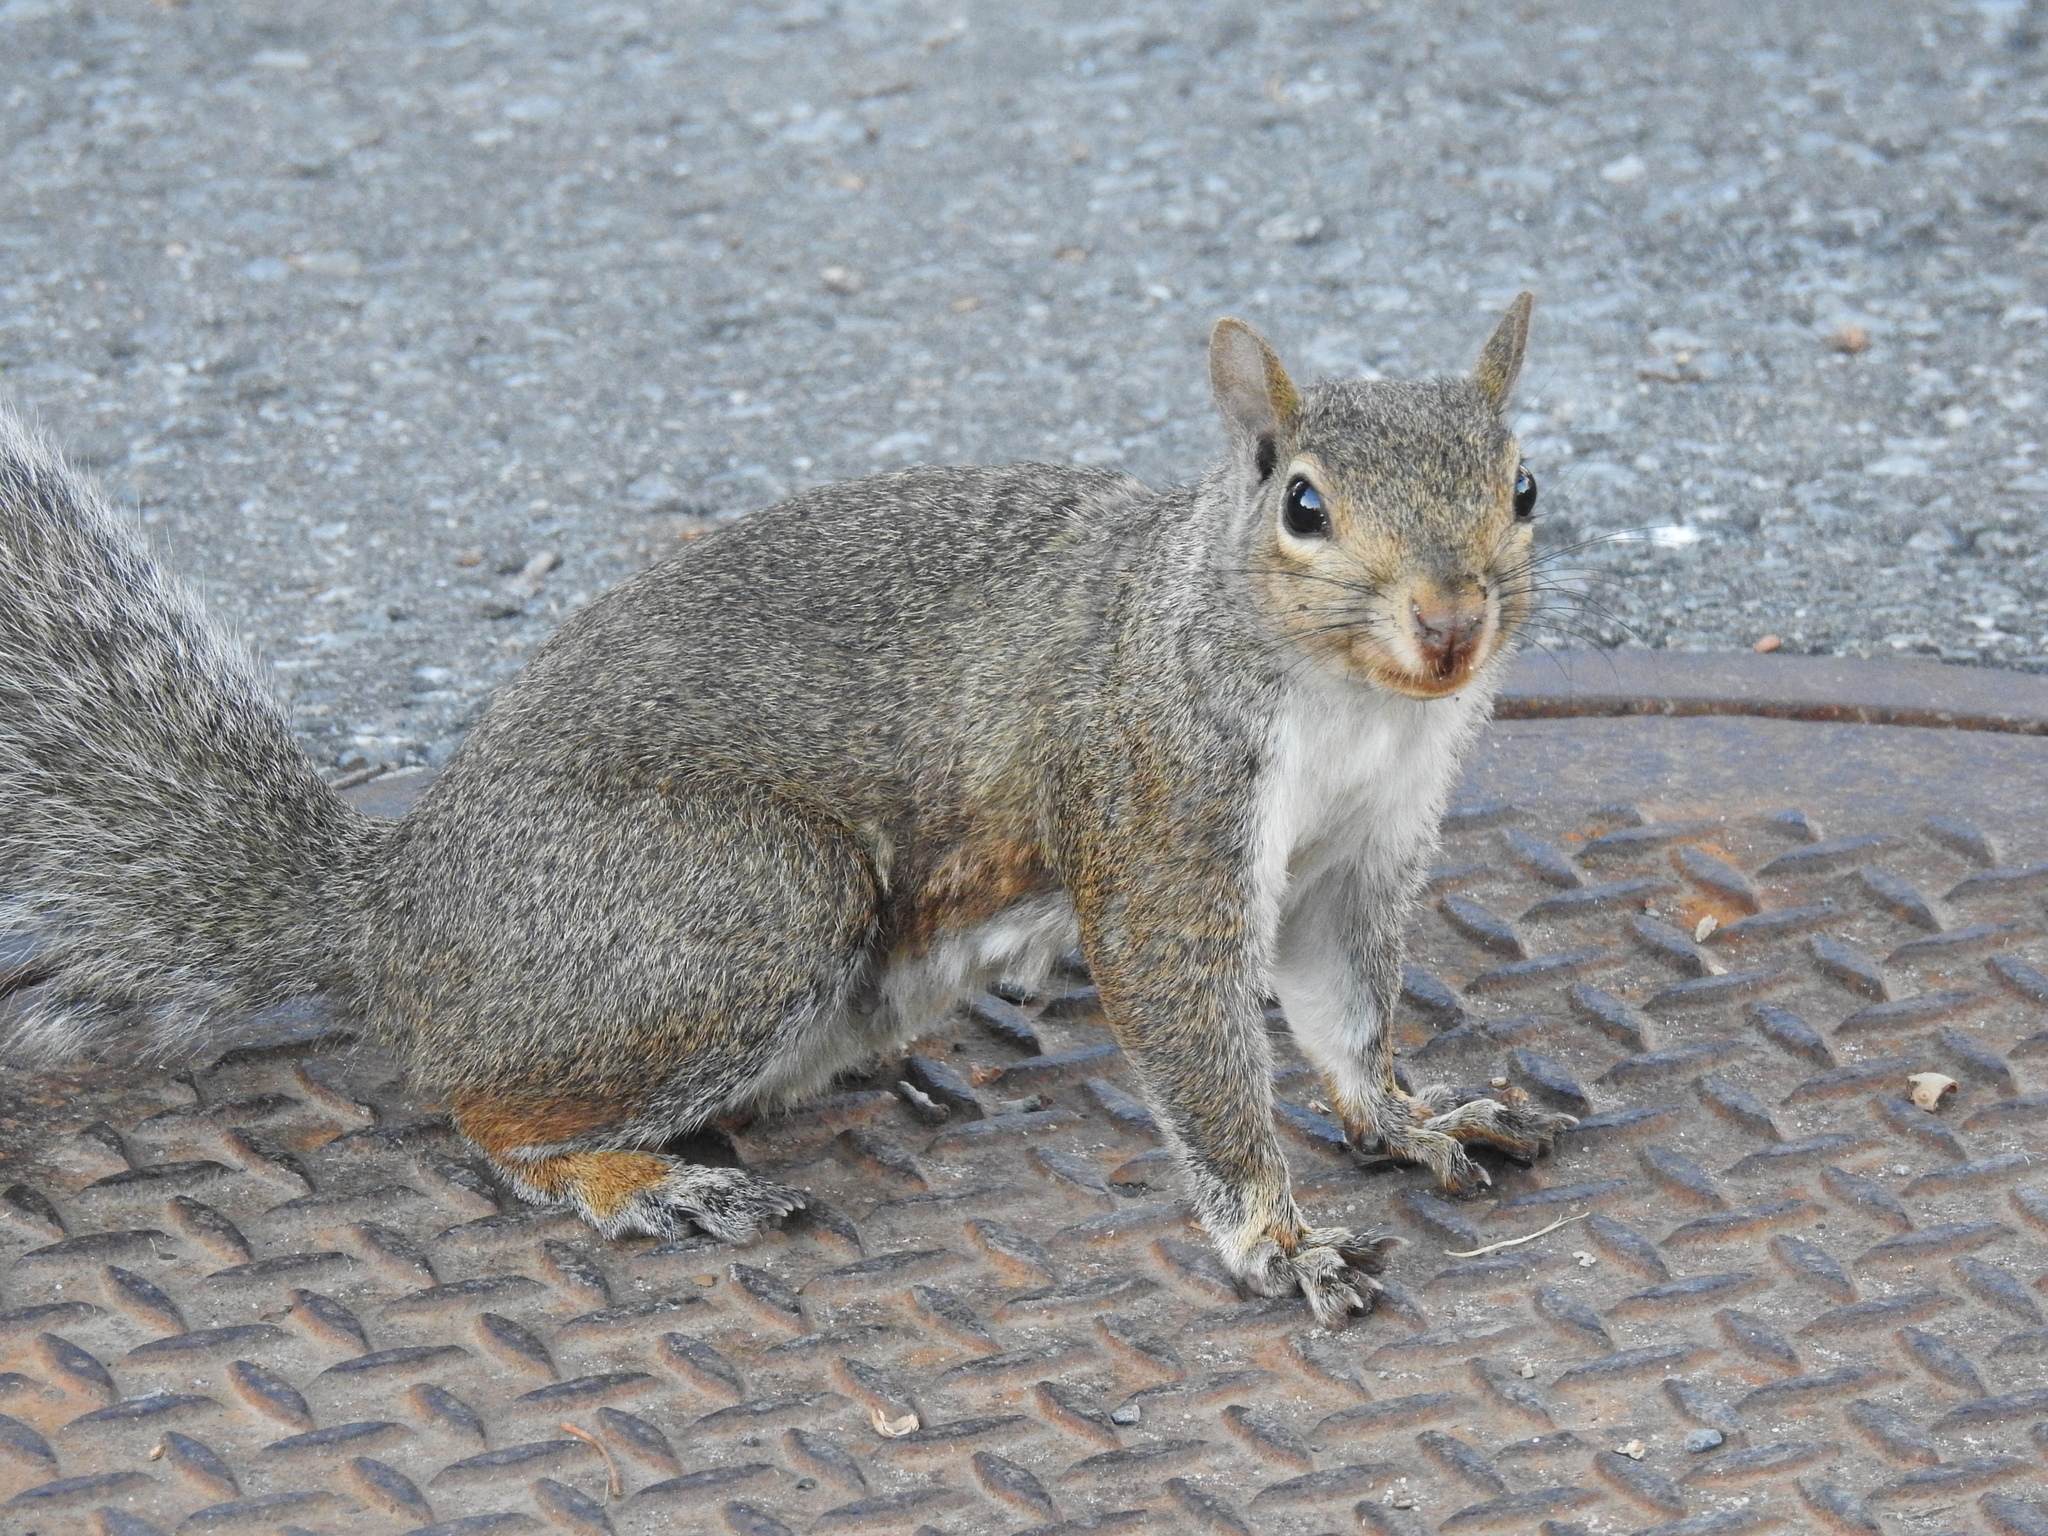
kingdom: Animalia
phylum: Chordata
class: Mammalia
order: Rodentia
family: Sciuridae
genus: Sciurus
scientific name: Sciurus carolinensis
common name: Eastern gray squirrel
